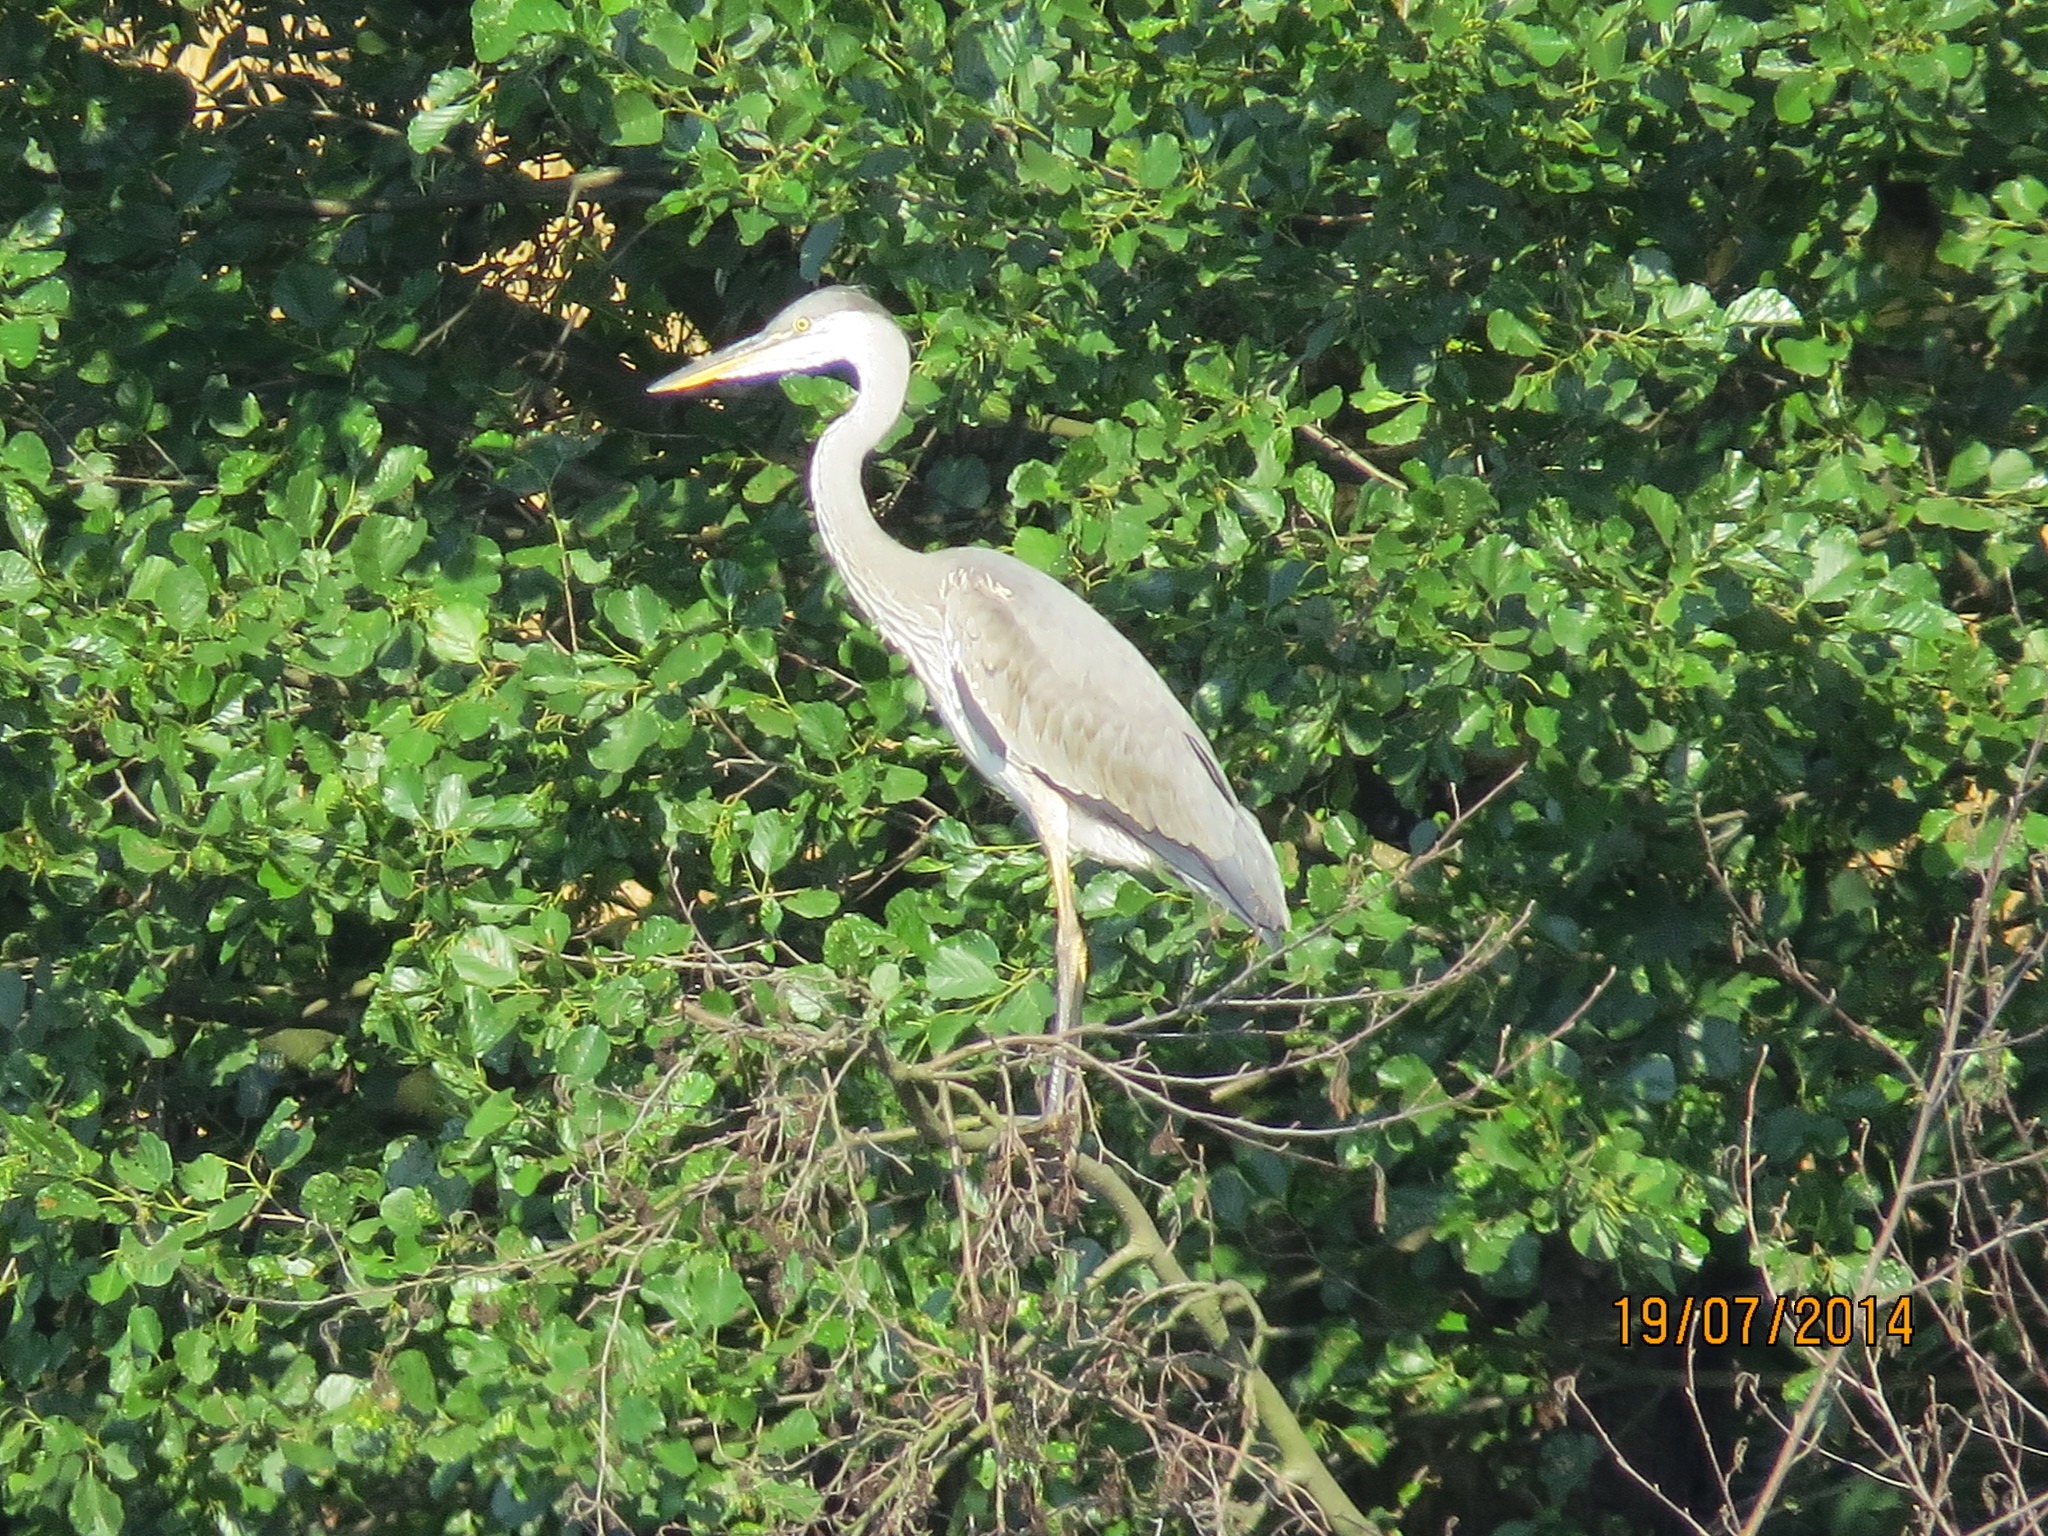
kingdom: Animalia
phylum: Chordata
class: Aves
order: Pelecaniformes
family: Ardeidae
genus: Ardea
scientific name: Ardea cinerea
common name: Grey heron
